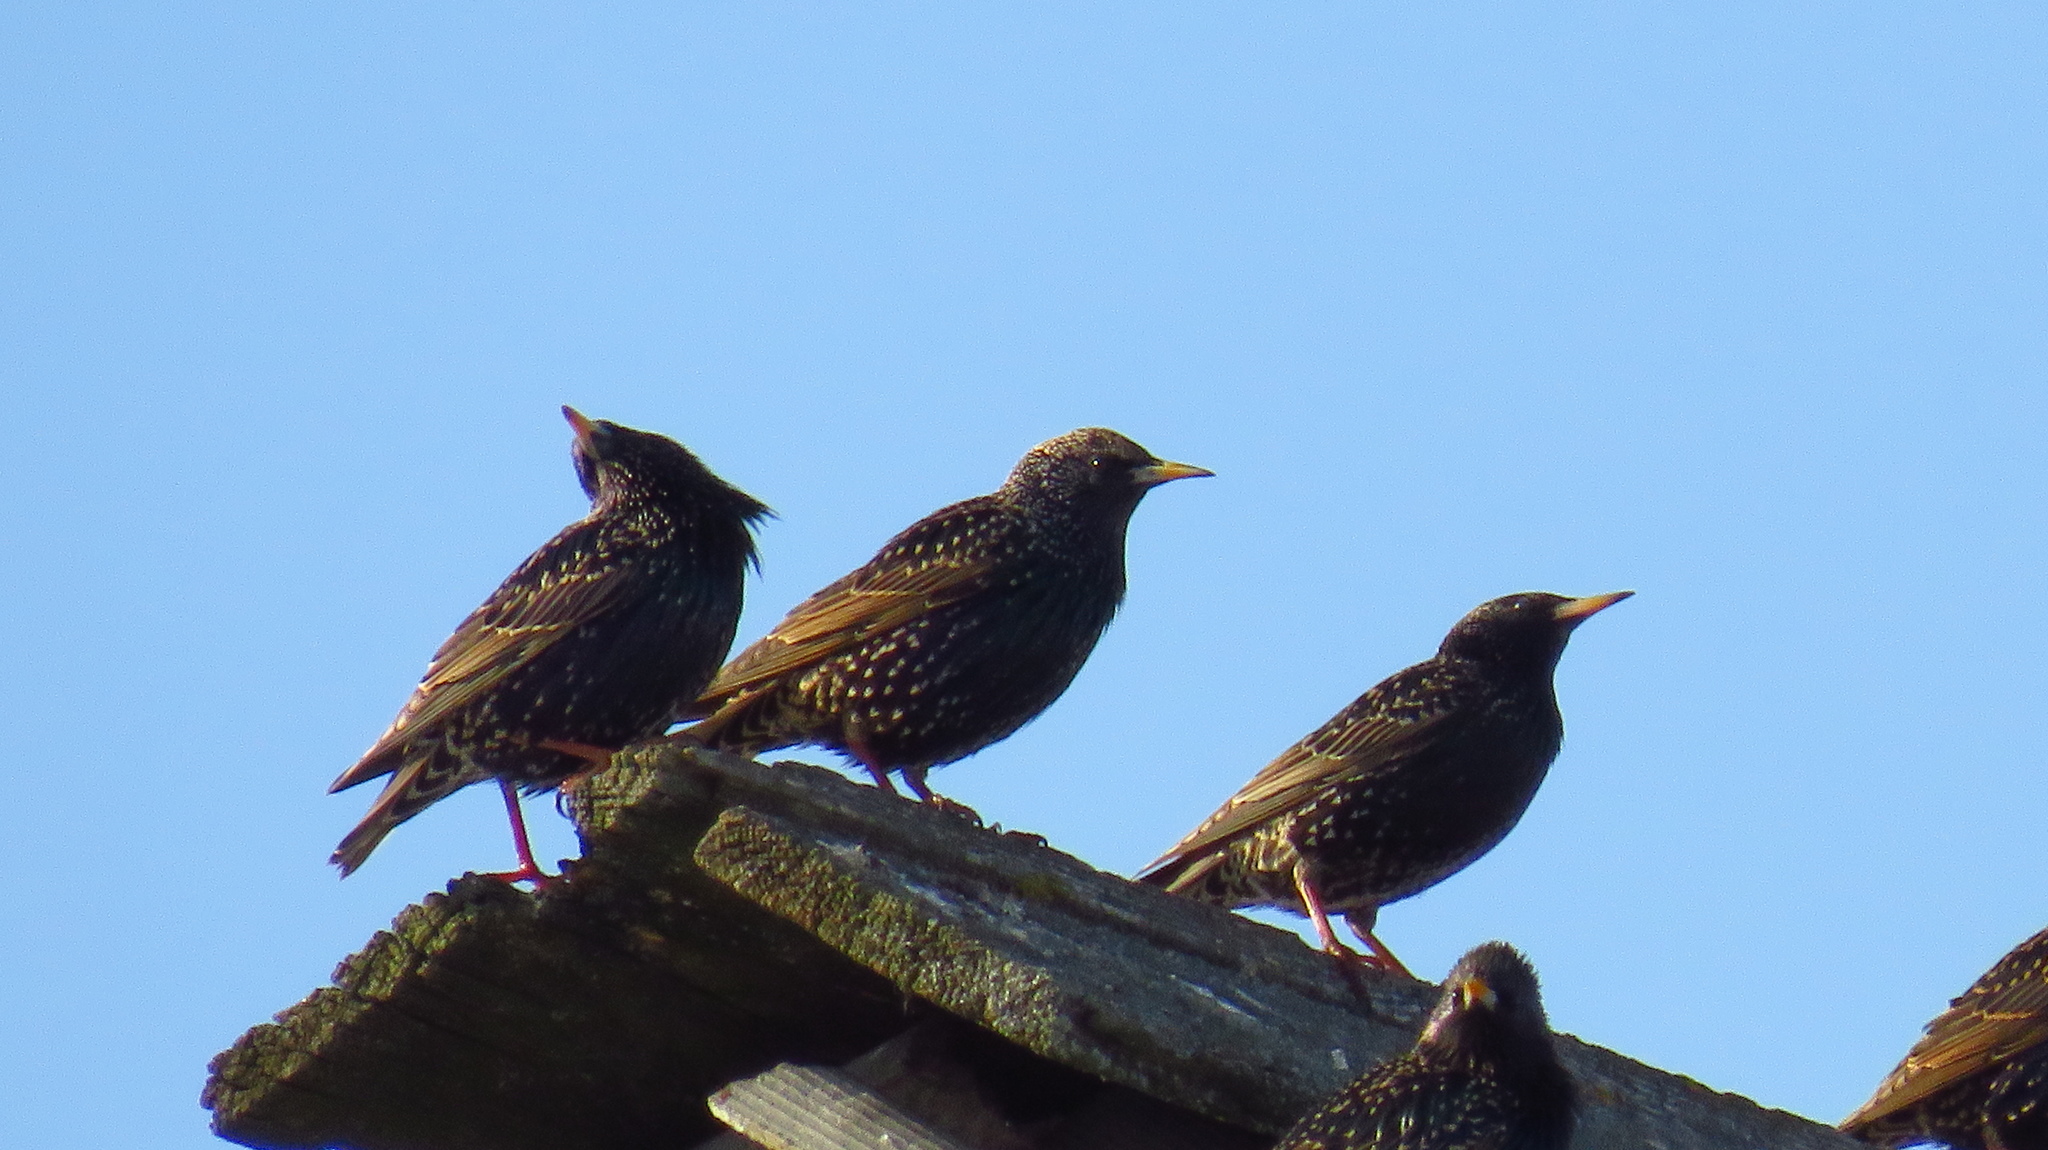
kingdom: Animalia
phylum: Chordata
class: Aves
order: Passeriformes
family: Sturnidae
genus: Sturnus
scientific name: Sturnus vulgaris
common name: Common starling
